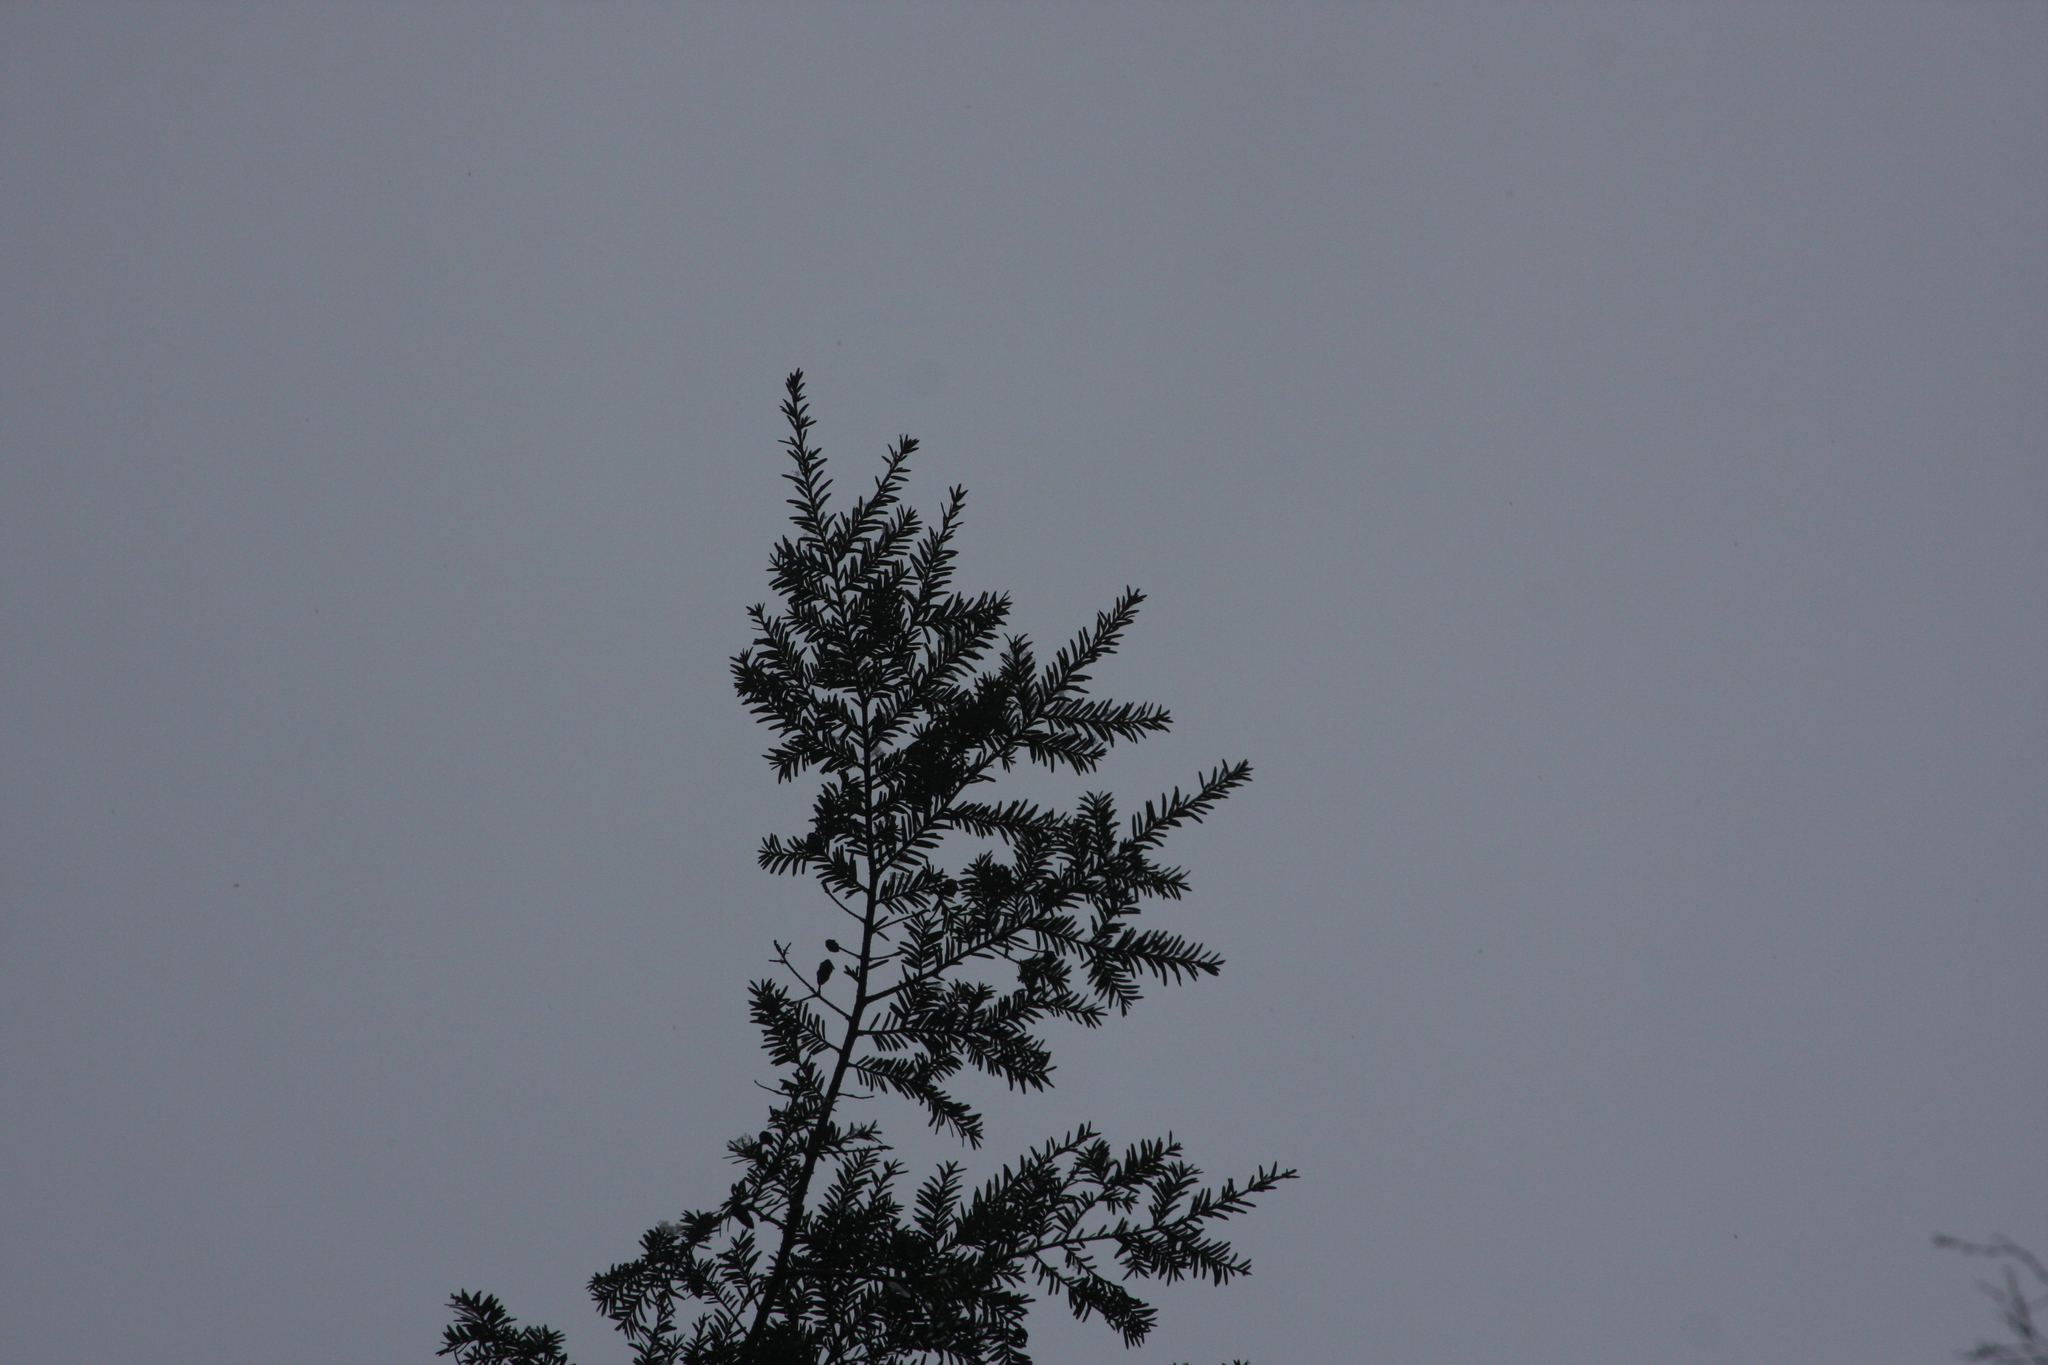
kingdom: Plantae
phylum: Tracheophyta
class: Pinopsida
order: Pinales
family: Pinaceae
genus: Tsuga
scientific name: Tsuga canadensis
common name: Eastern hemlock
